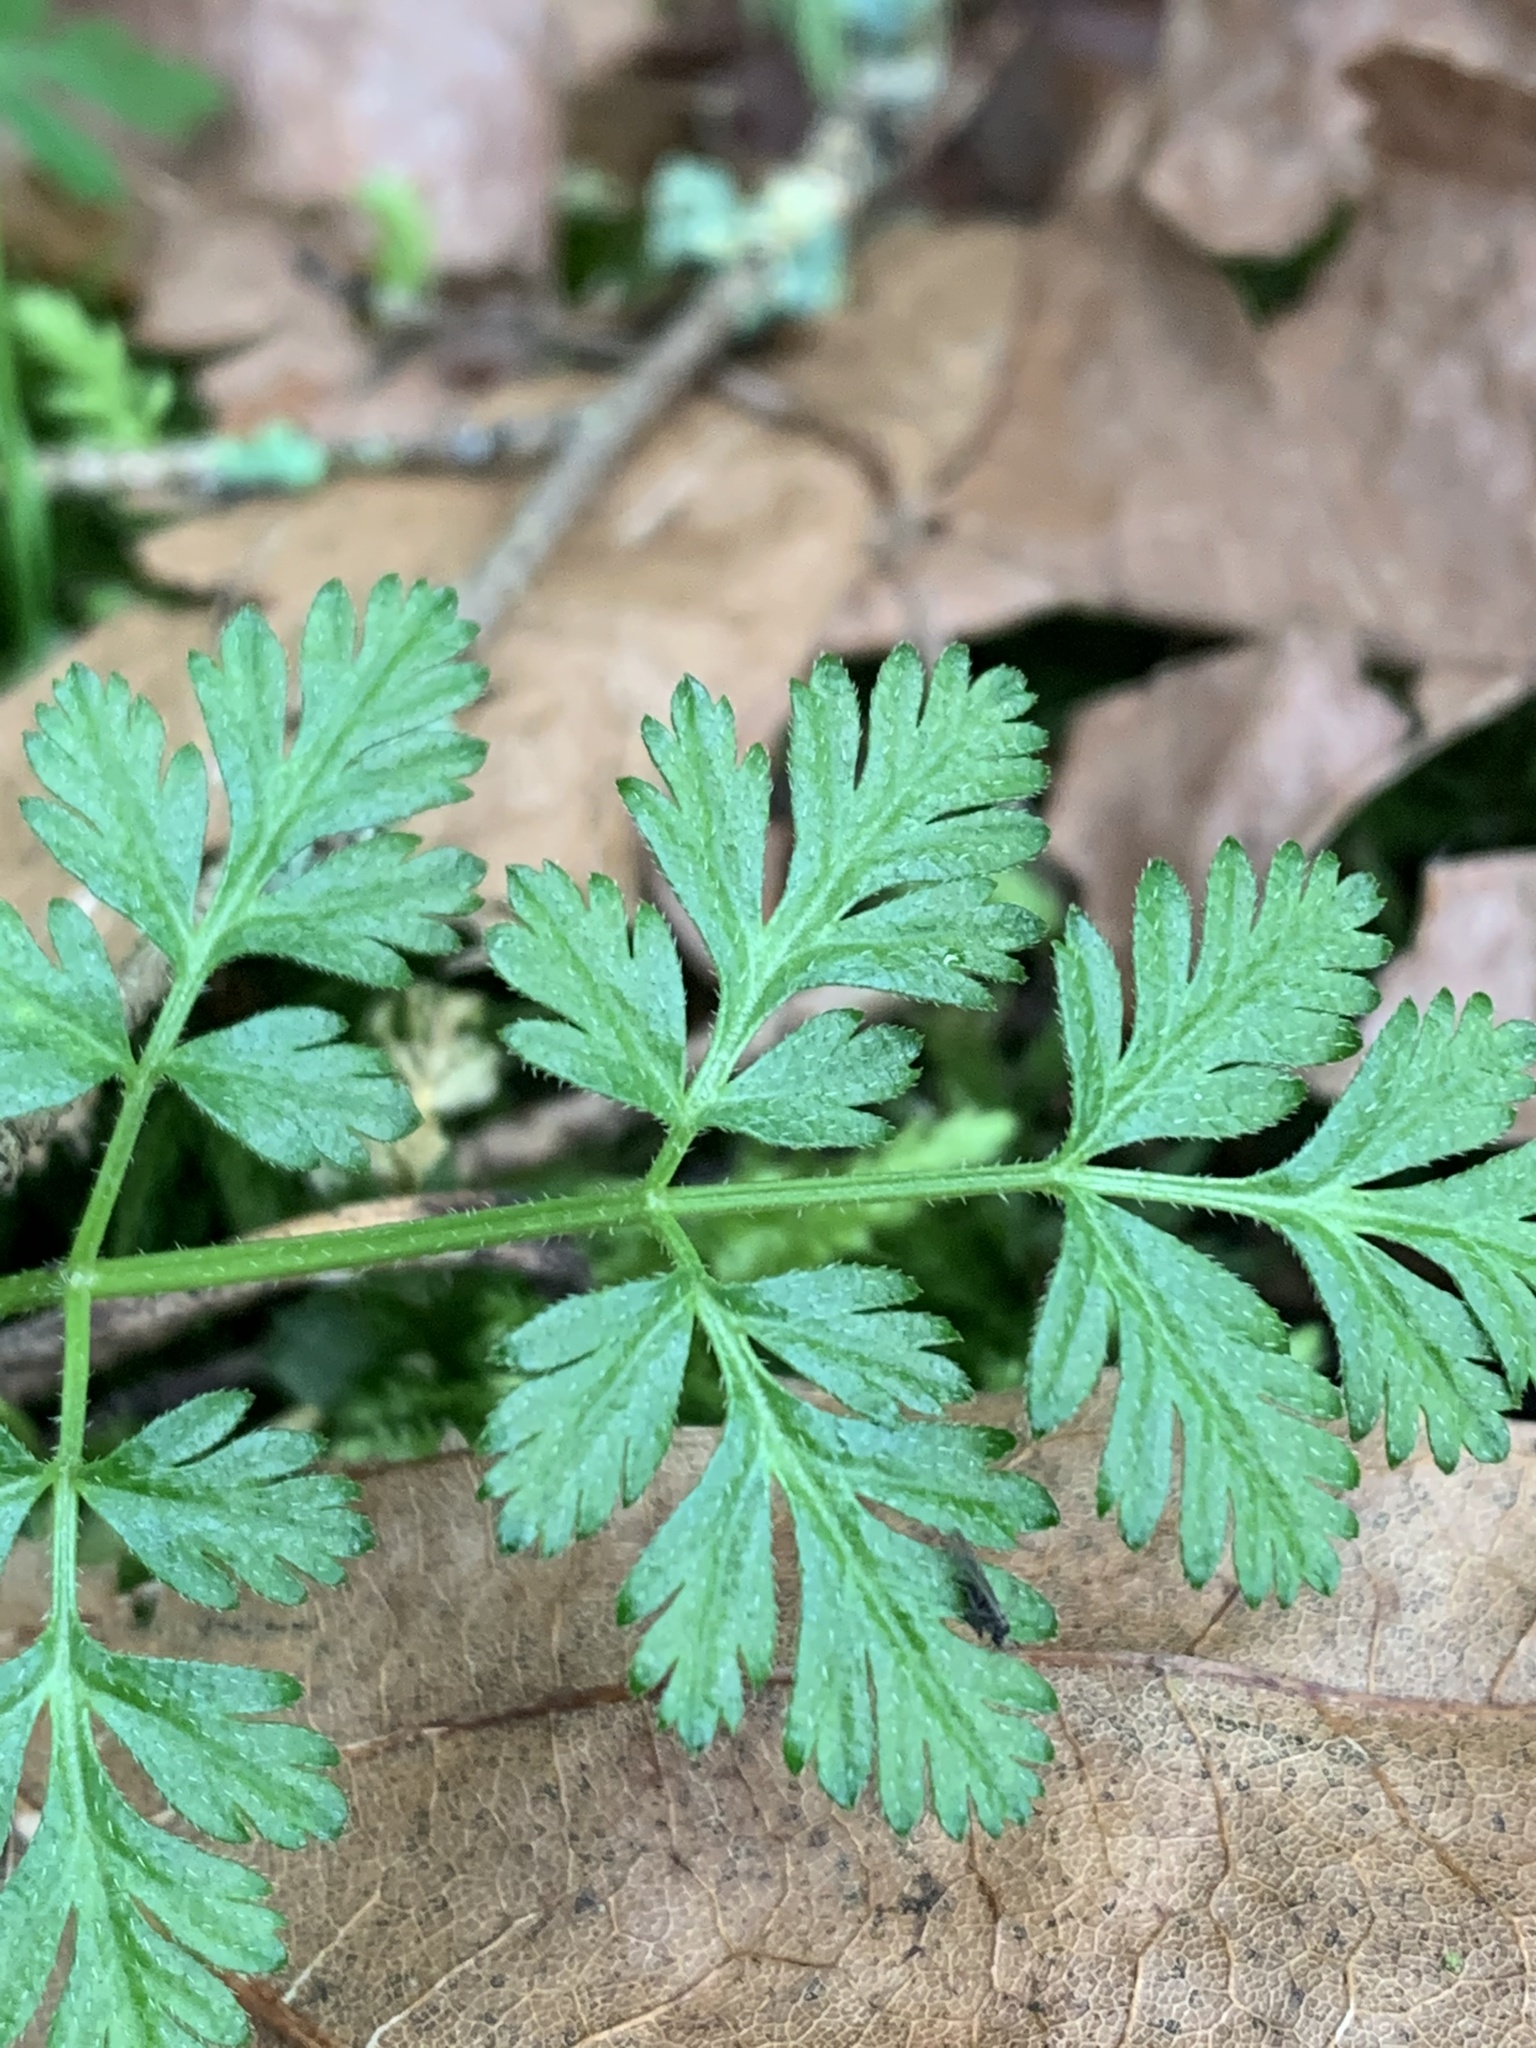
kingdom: Plantae
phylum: Tracheophyta
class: Magnoliopsida
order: Apiales
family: Apiaceae
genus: Torilis
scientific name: Torilis japonica
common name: Upright hedge-parsley
